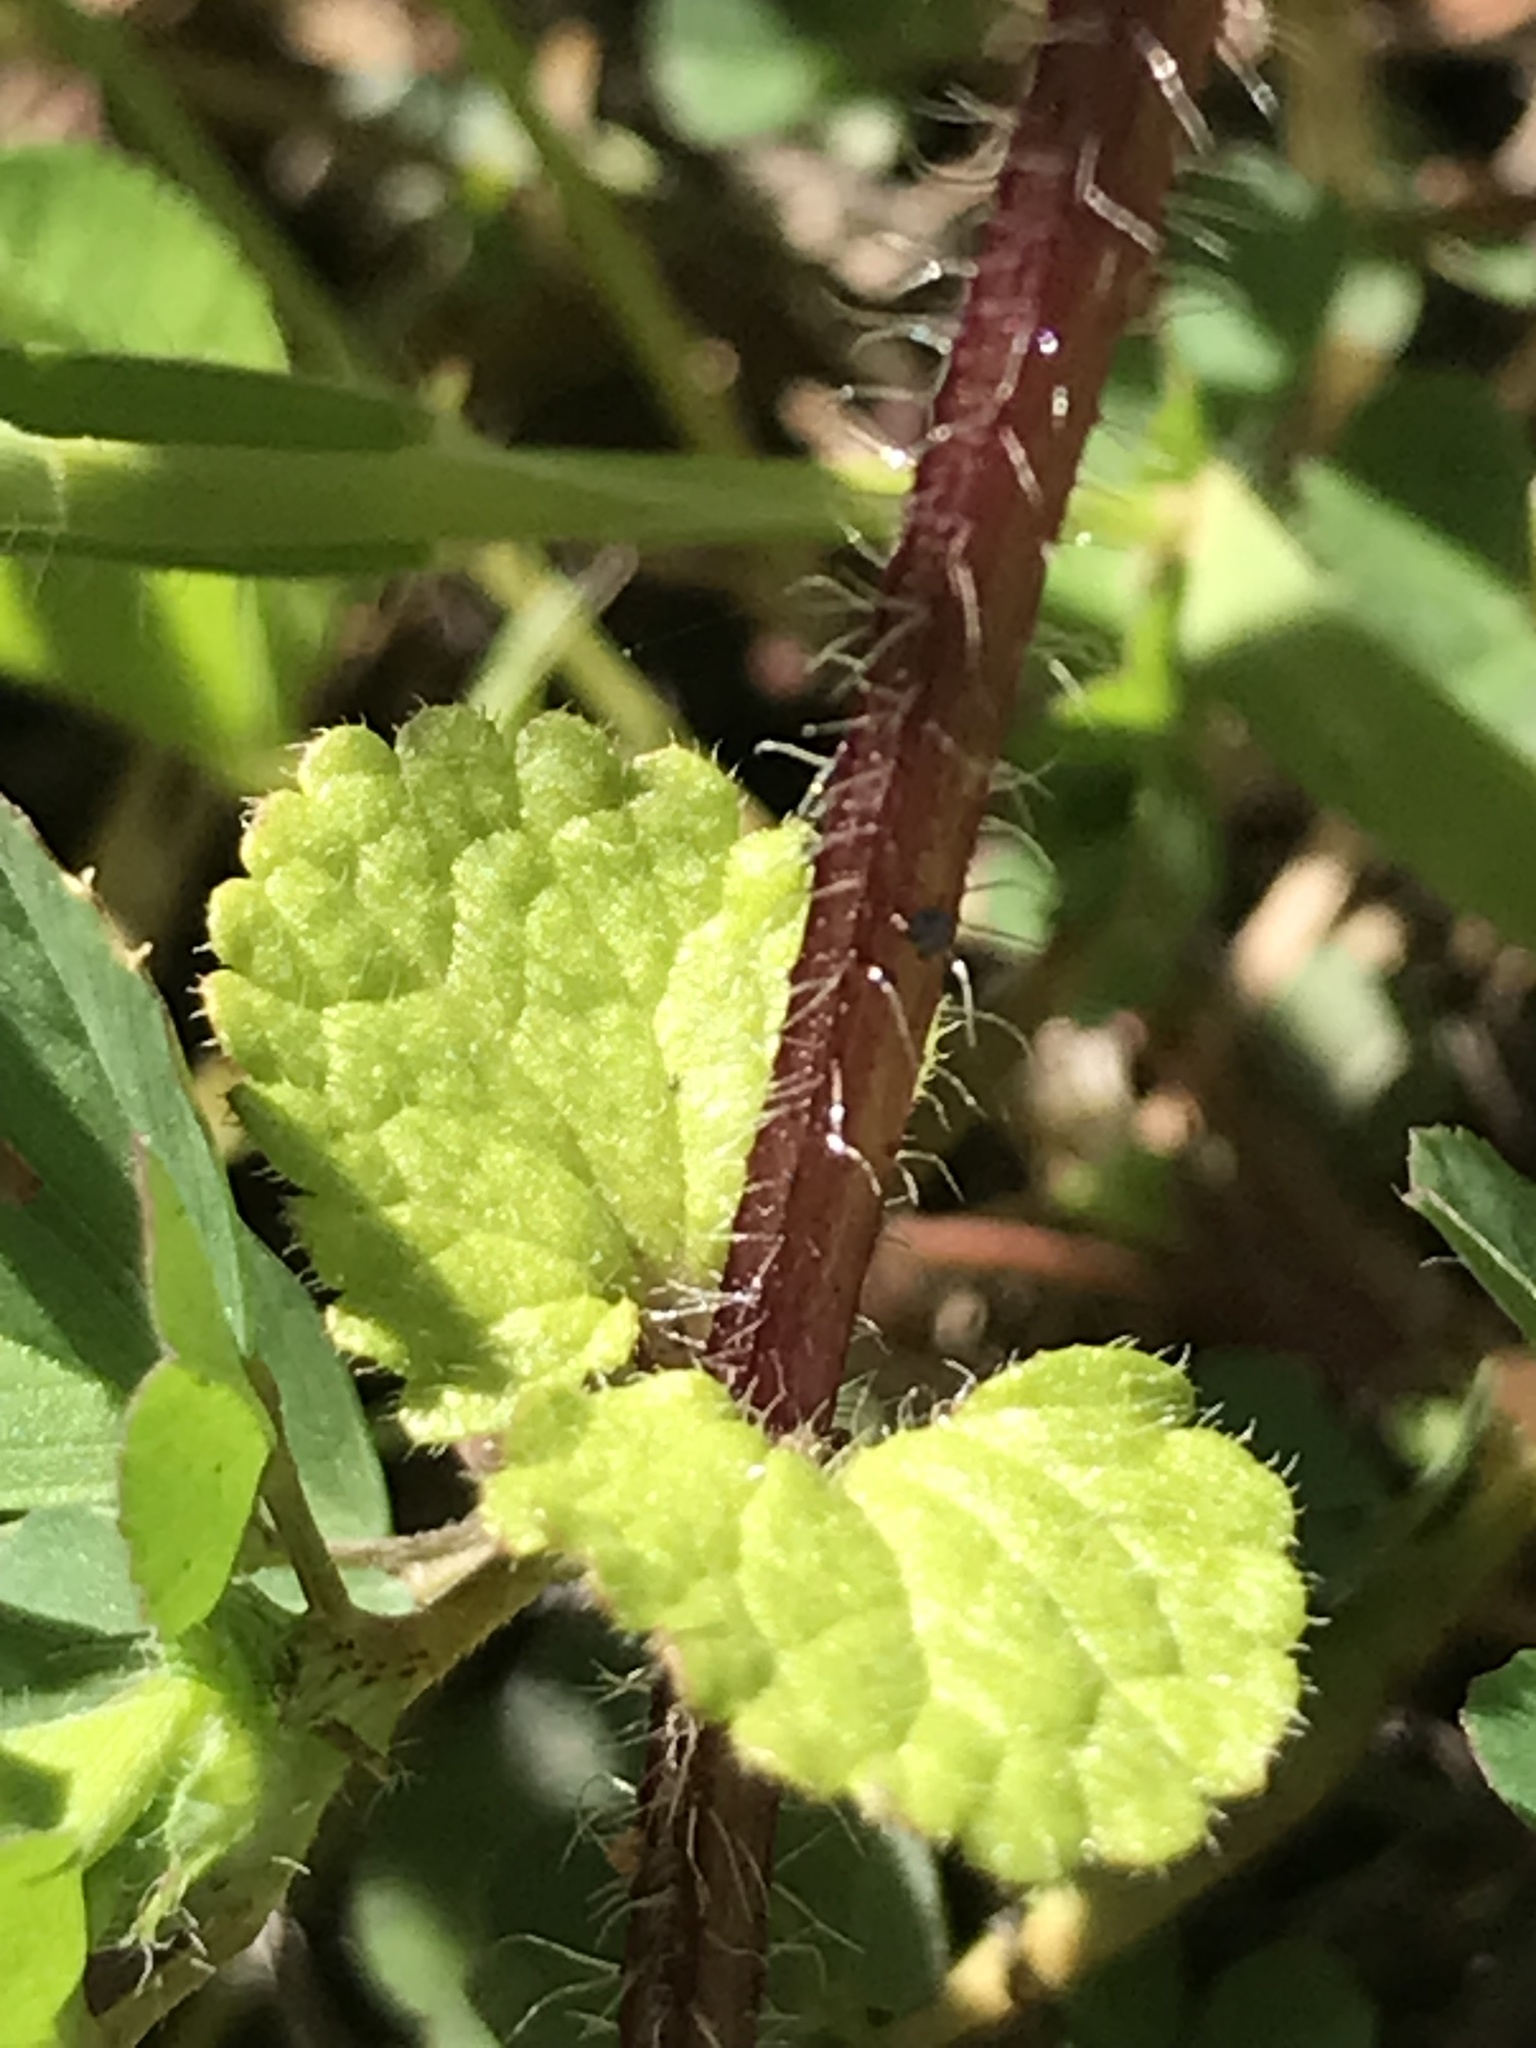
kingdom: Plantae
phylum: Tracheophyta
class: Magnoliopsida
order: Lamiales
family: Lamiaceae
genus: Stachys
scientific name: Stachys arvensis
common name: Field woundwort
